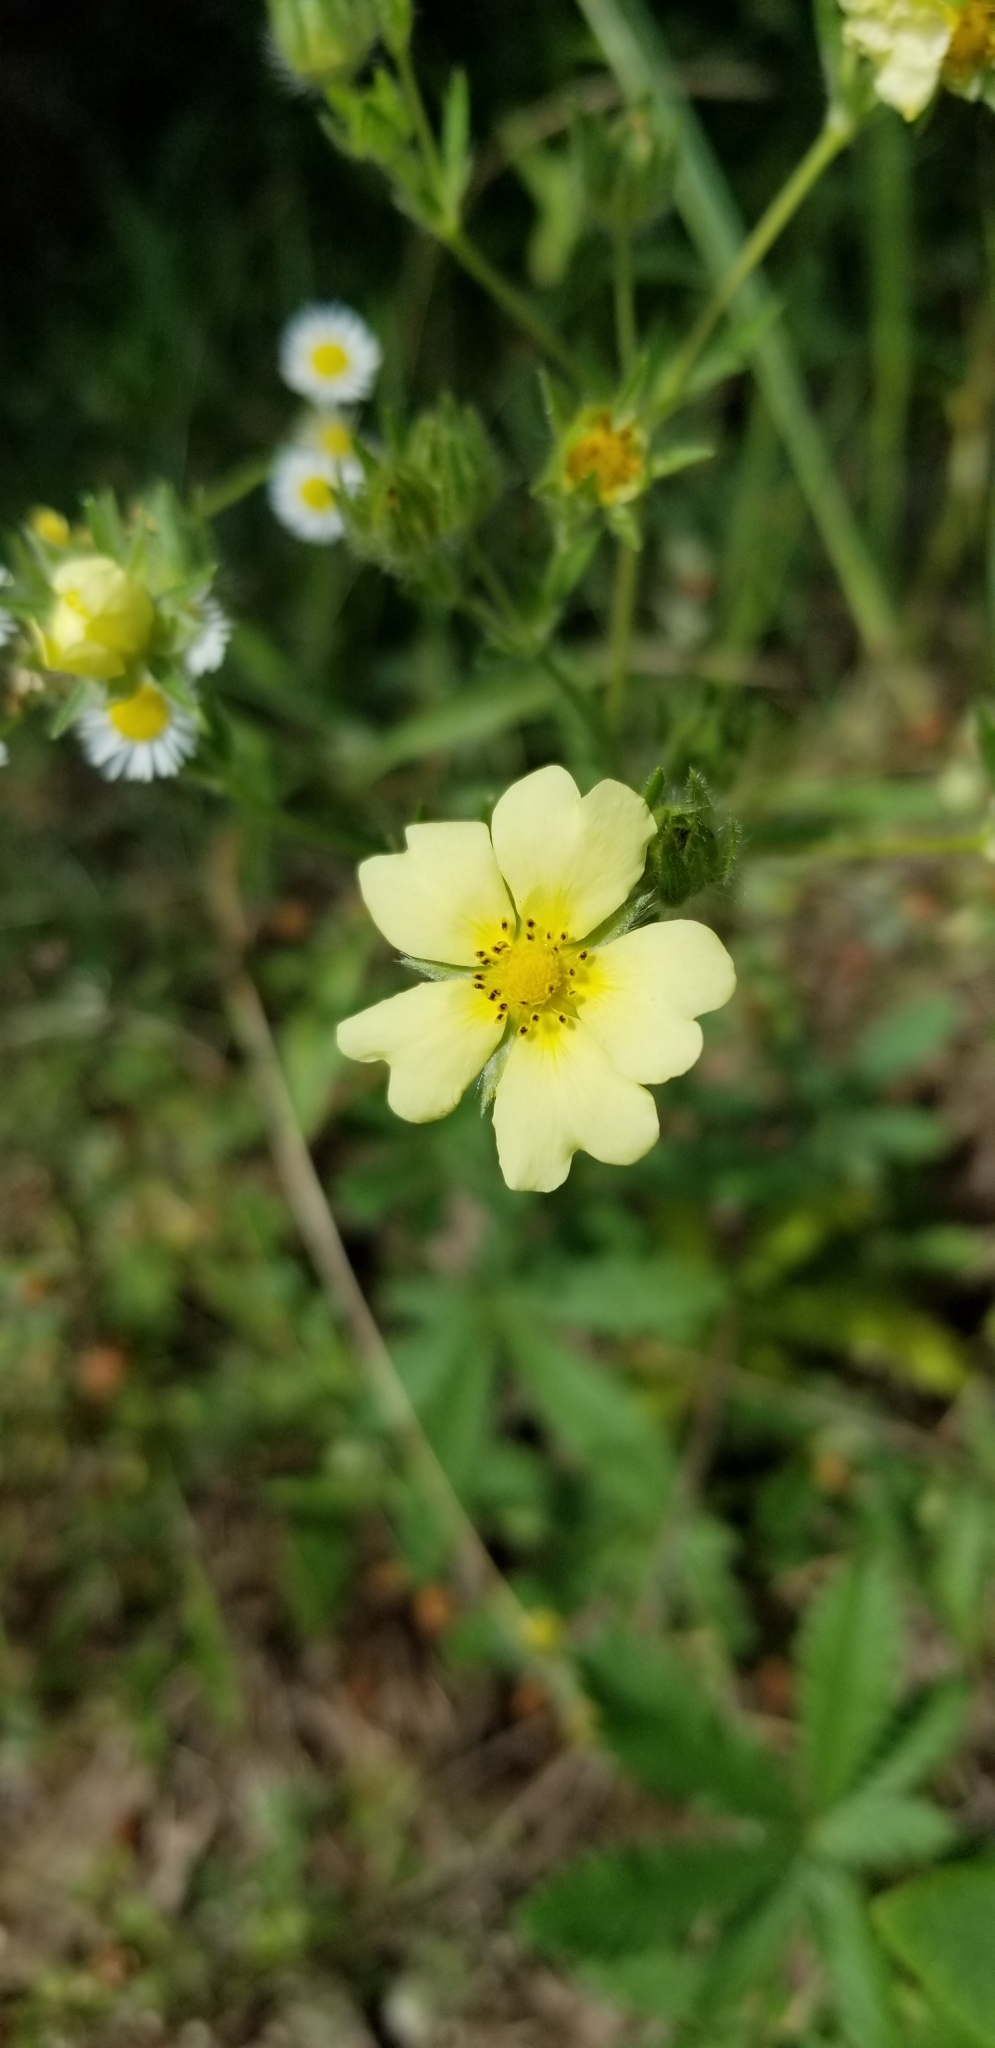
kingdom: Plantae
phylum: Tracheophyta
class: Magnoliopsida
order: Rosales
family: Rosaceae
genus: Potentilla
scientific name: Potentilla recta
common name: Sulphur cinquefoil
